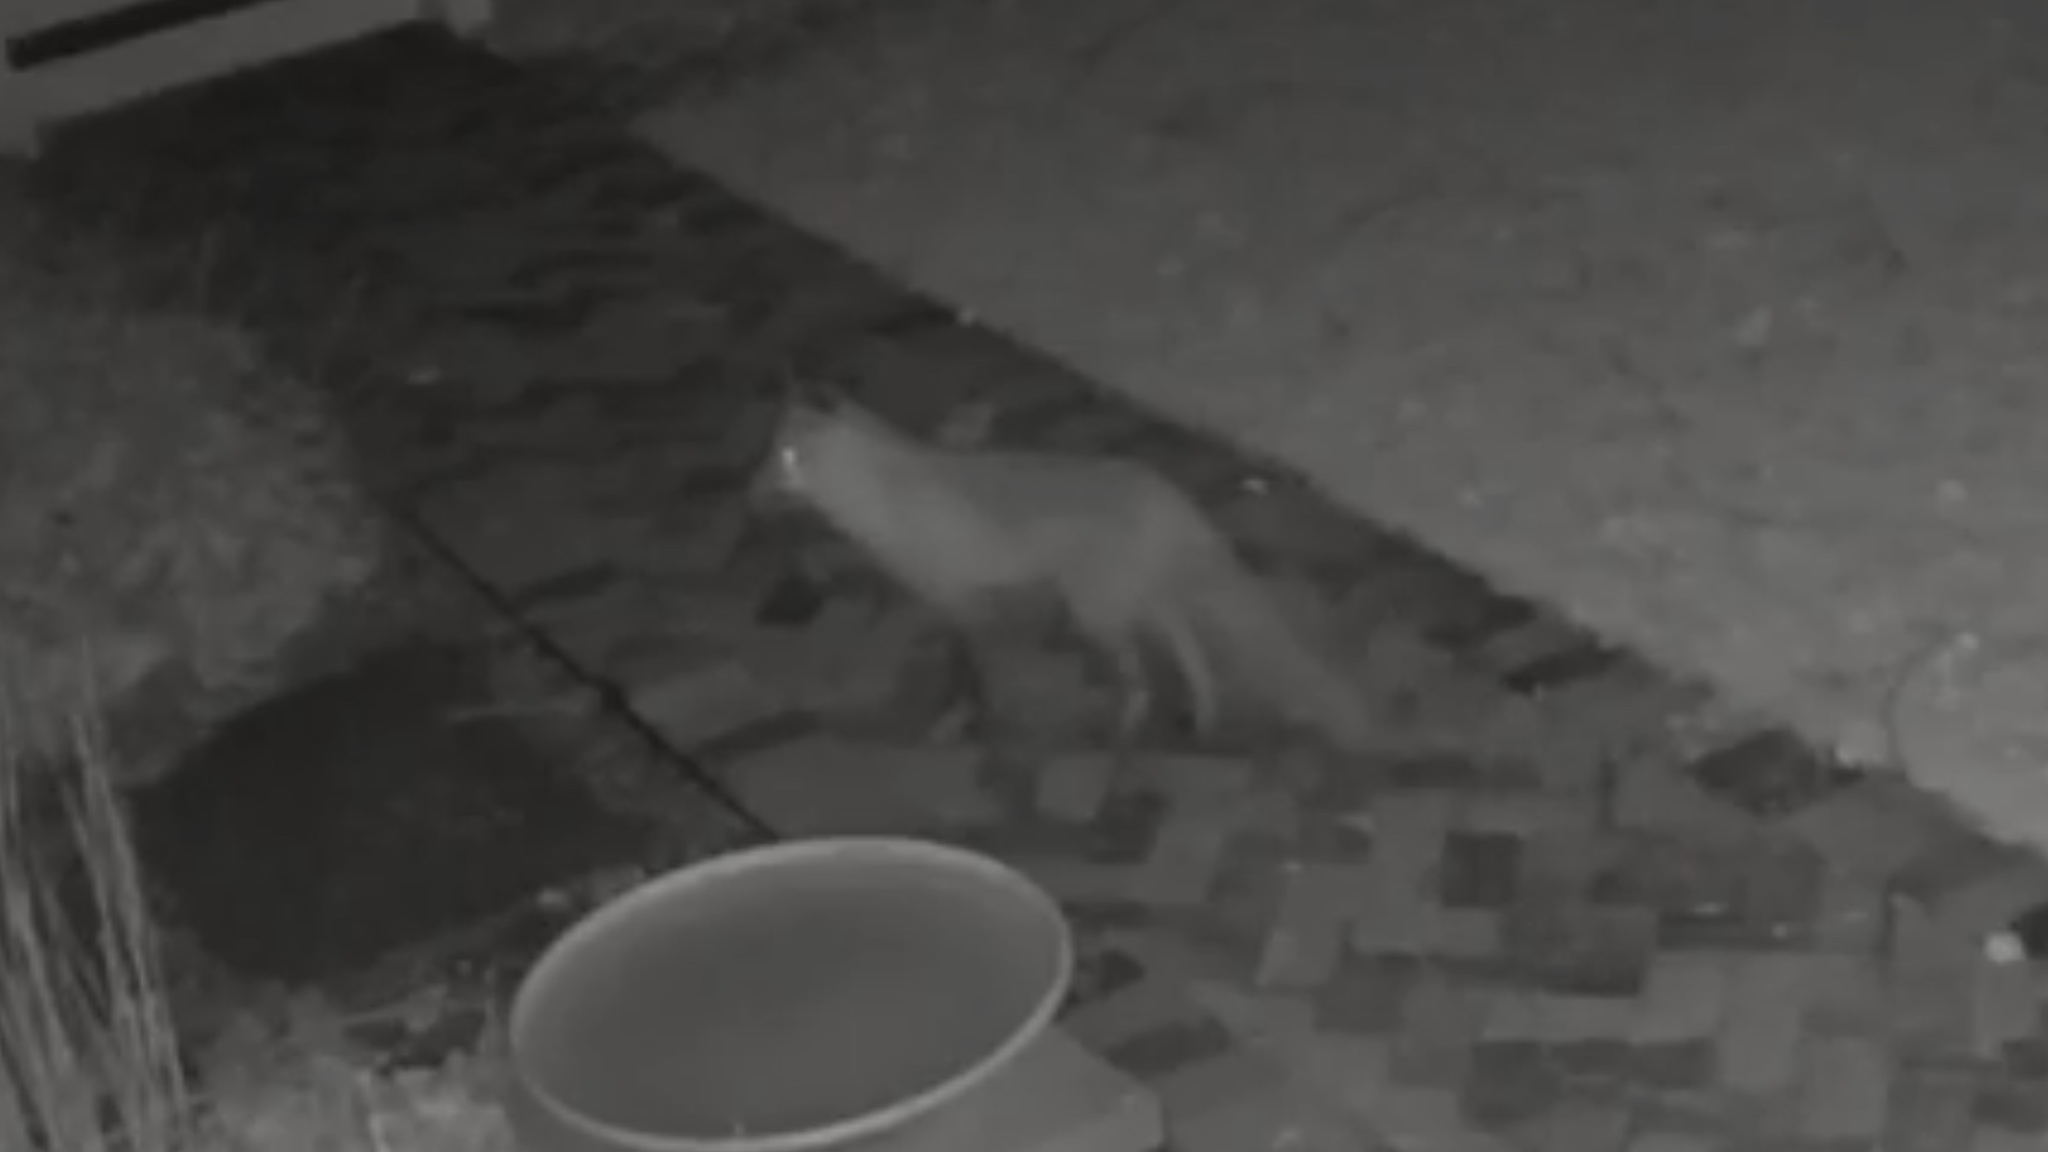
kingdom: Animalia
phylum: Chordata
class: Mammalia
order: Carnivora
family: Canidae
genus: Vulpes
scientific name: Vulpes vulpes
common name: Red fox
